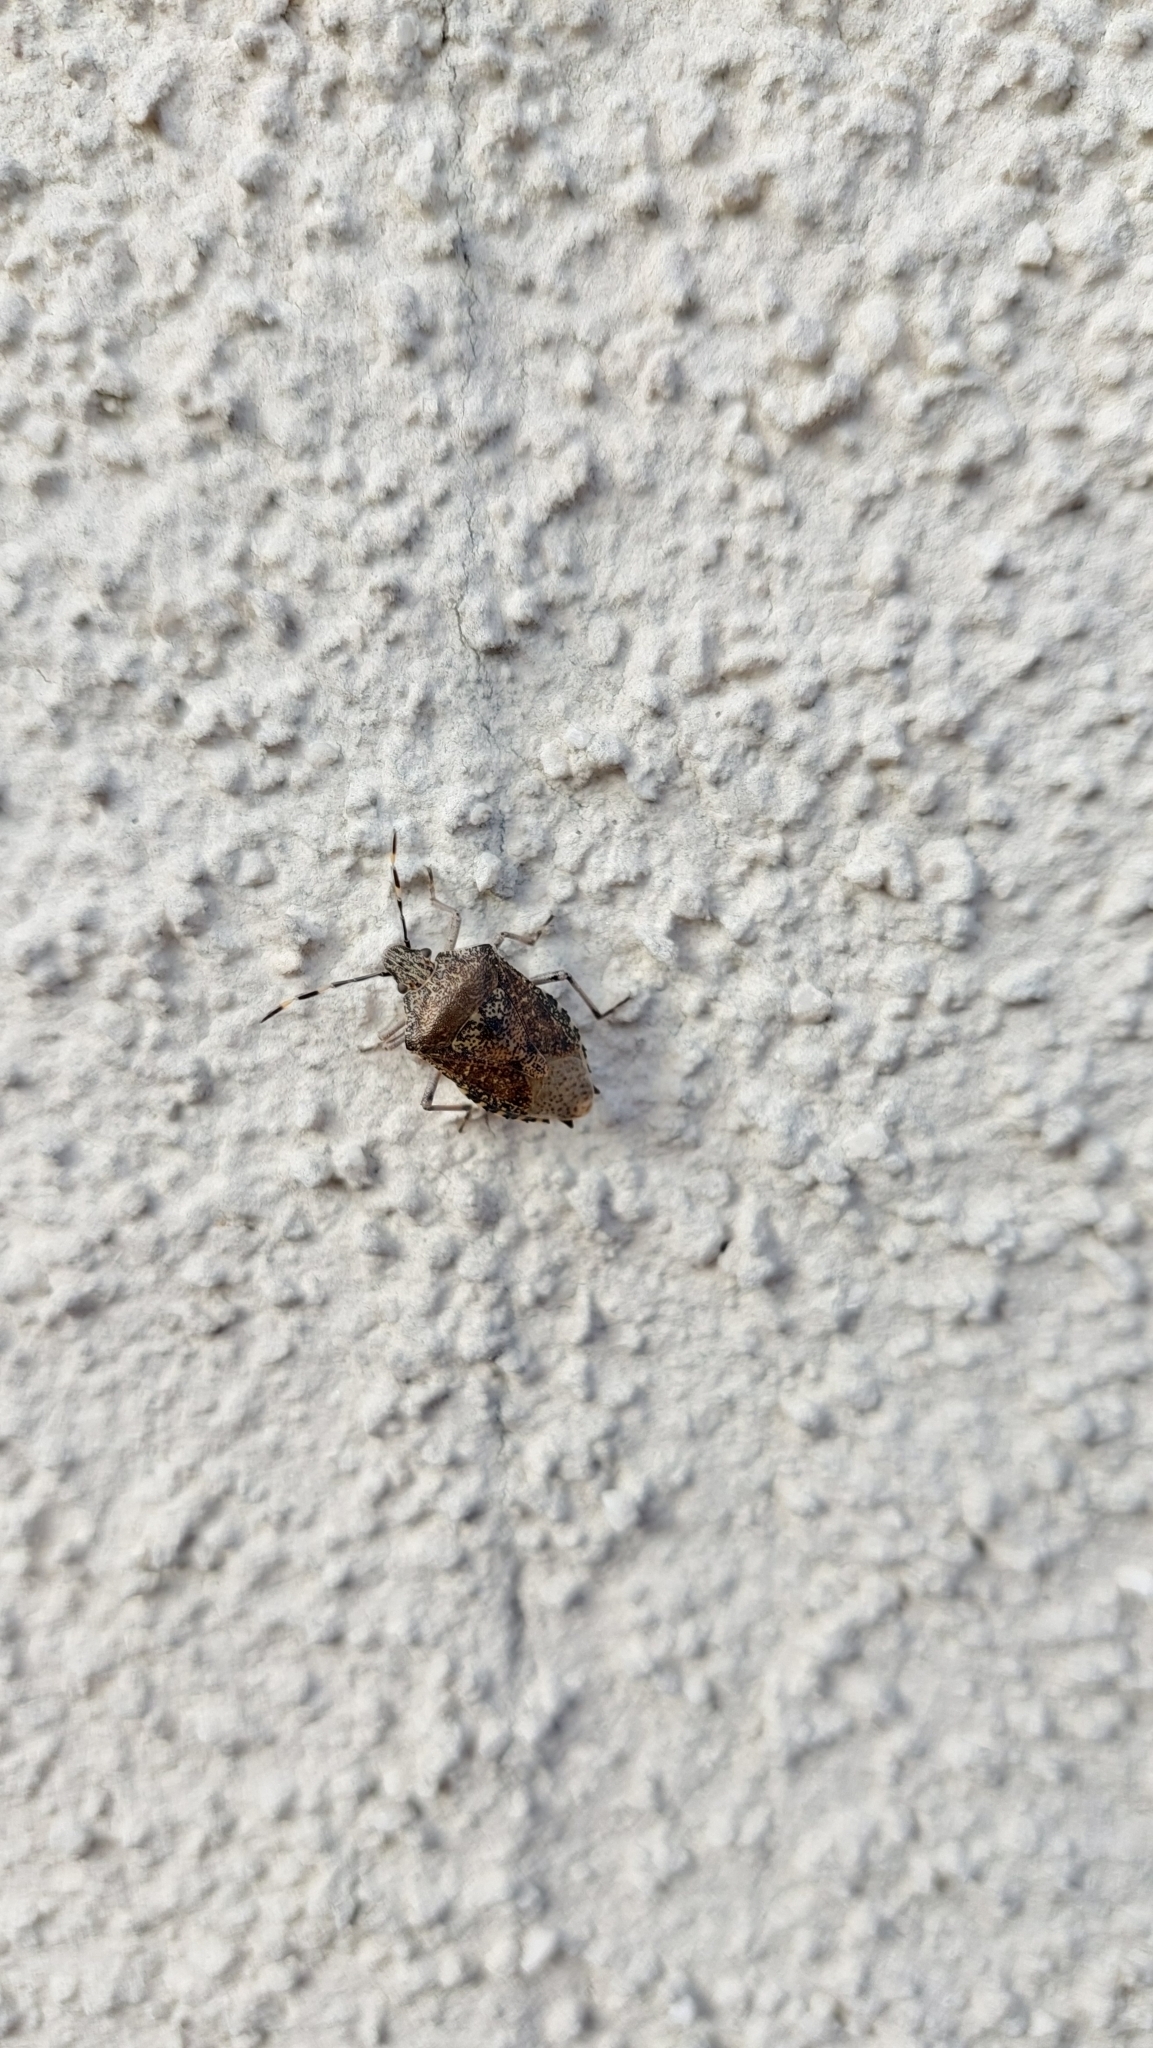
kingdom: Animalia
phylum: Arthropoda
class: Insecta
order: Hemiptera
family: Pentatomidae
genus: Rhaphigaster
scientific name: Rhaphigaster nebulosa
